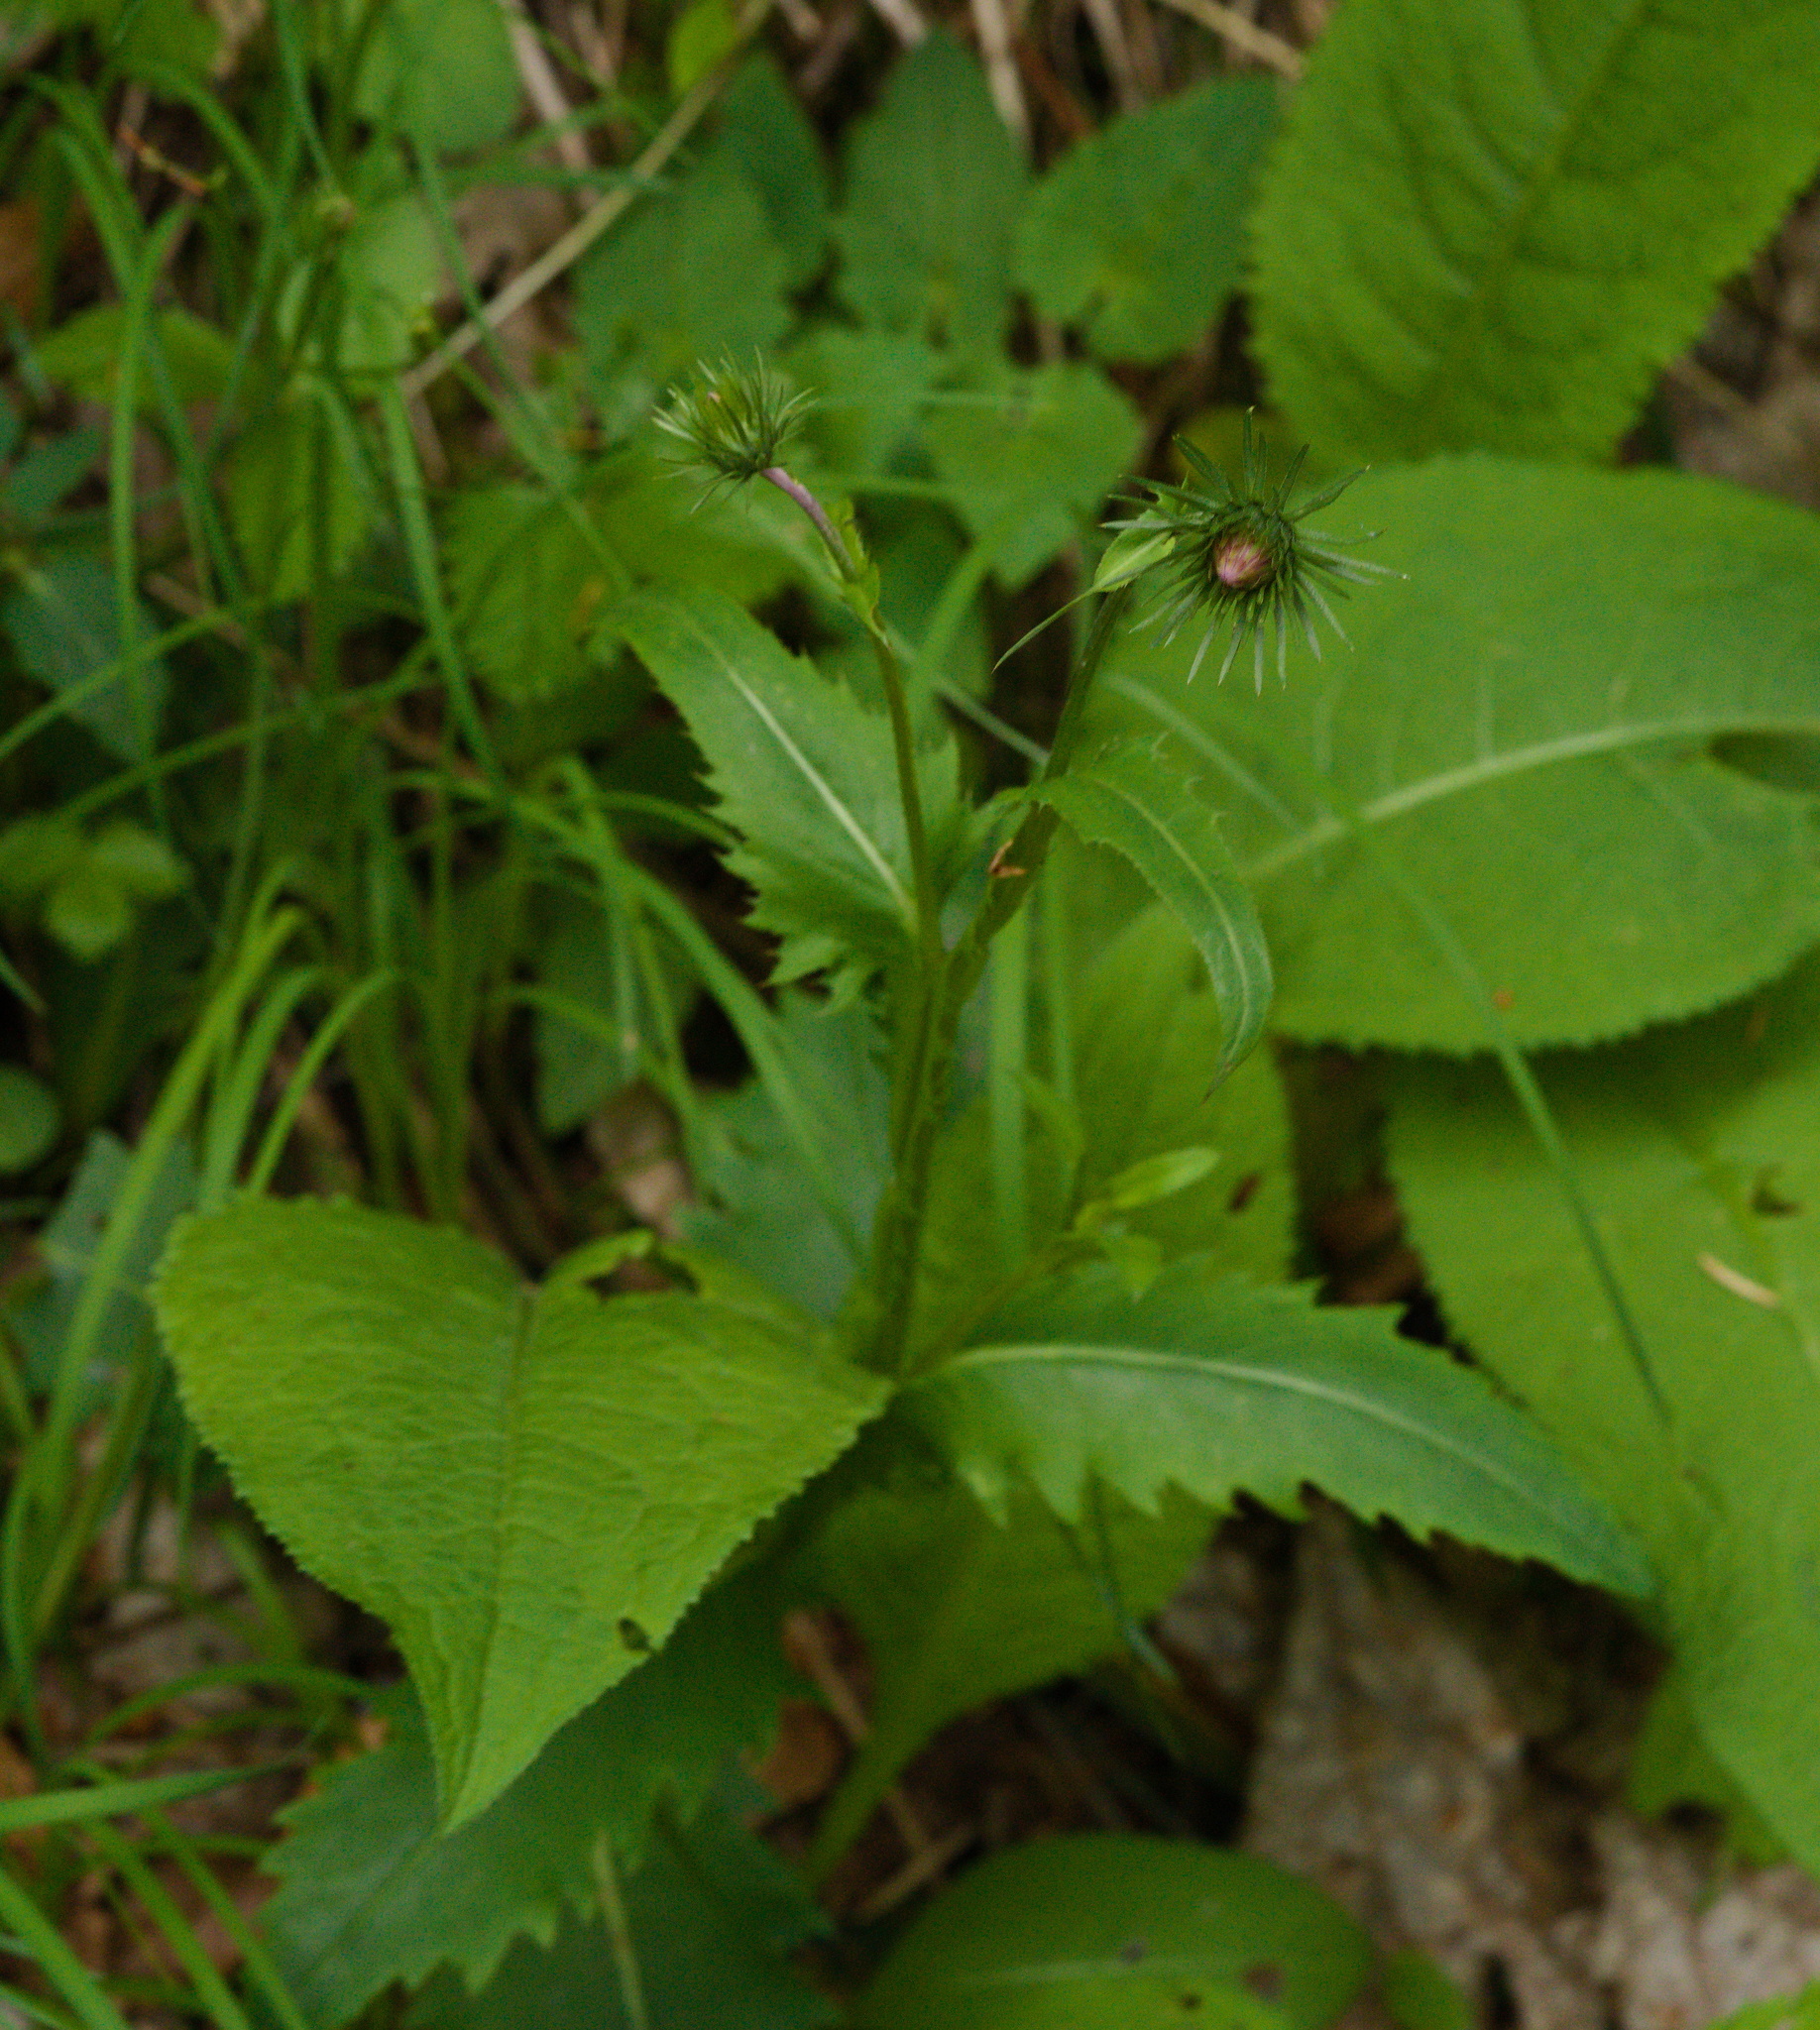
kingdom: Plantae
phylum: Tracheophyta
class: Magnoliopsida
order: Asterales
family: Asteraceae
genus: Carduus
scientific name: Carduus defloratus
